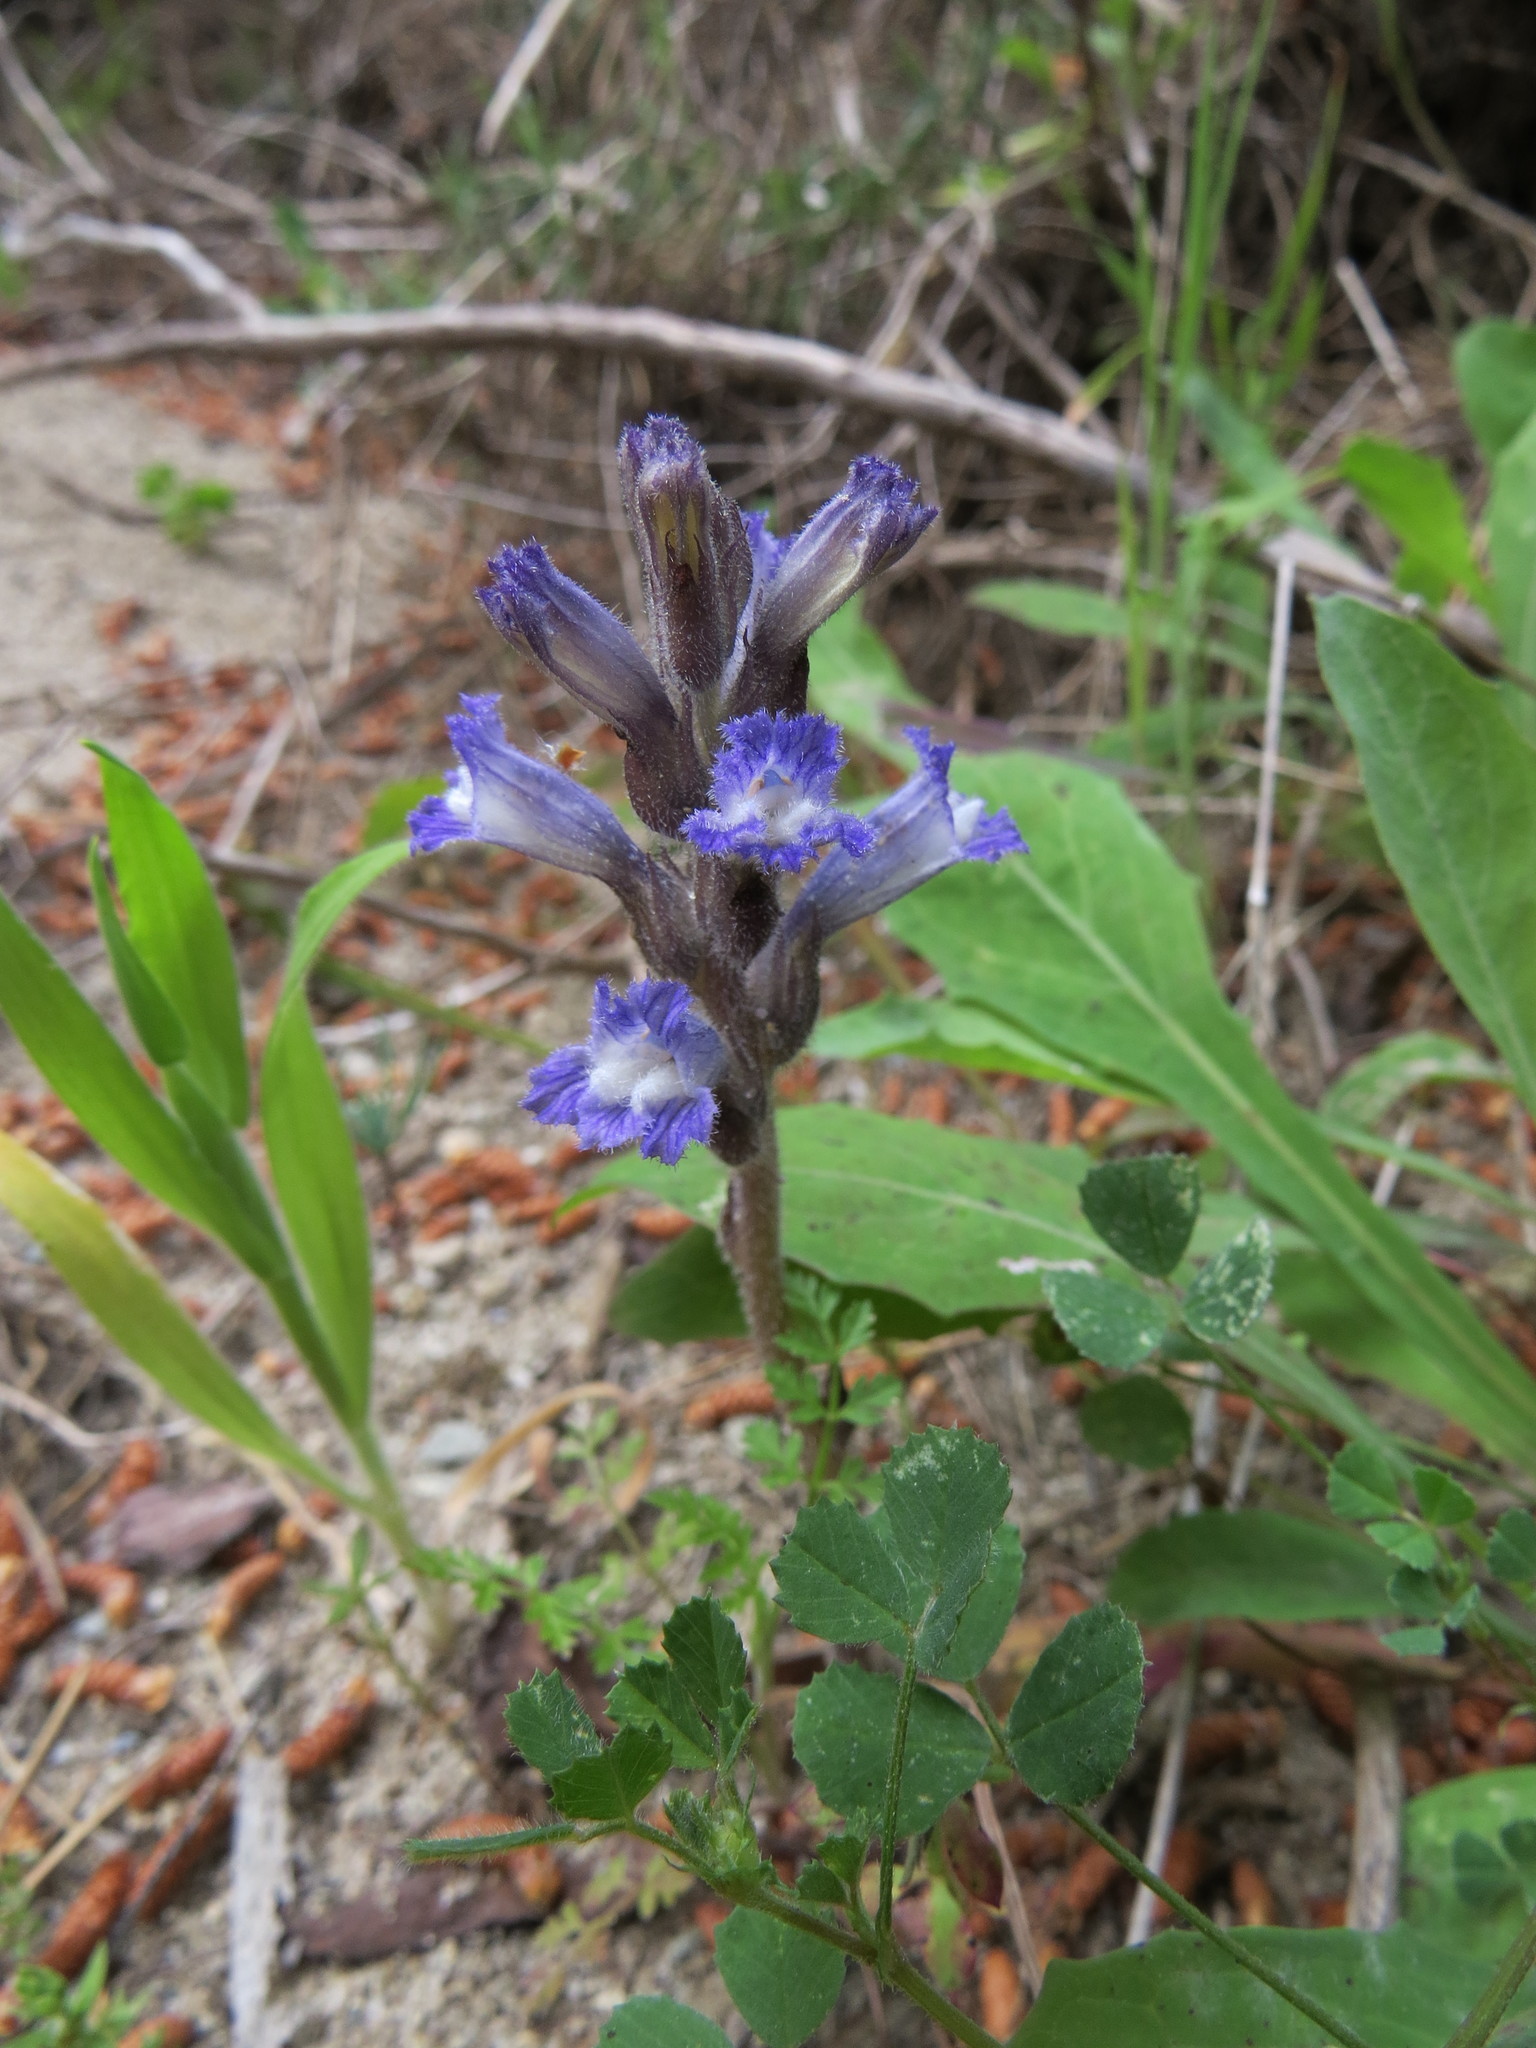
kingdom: Plantae
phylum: Tracheophyta
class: Magnoliopsida
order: Lamiales
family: Orobanchaceae
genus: Phelipanche
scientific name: Phelipanche mutelii
